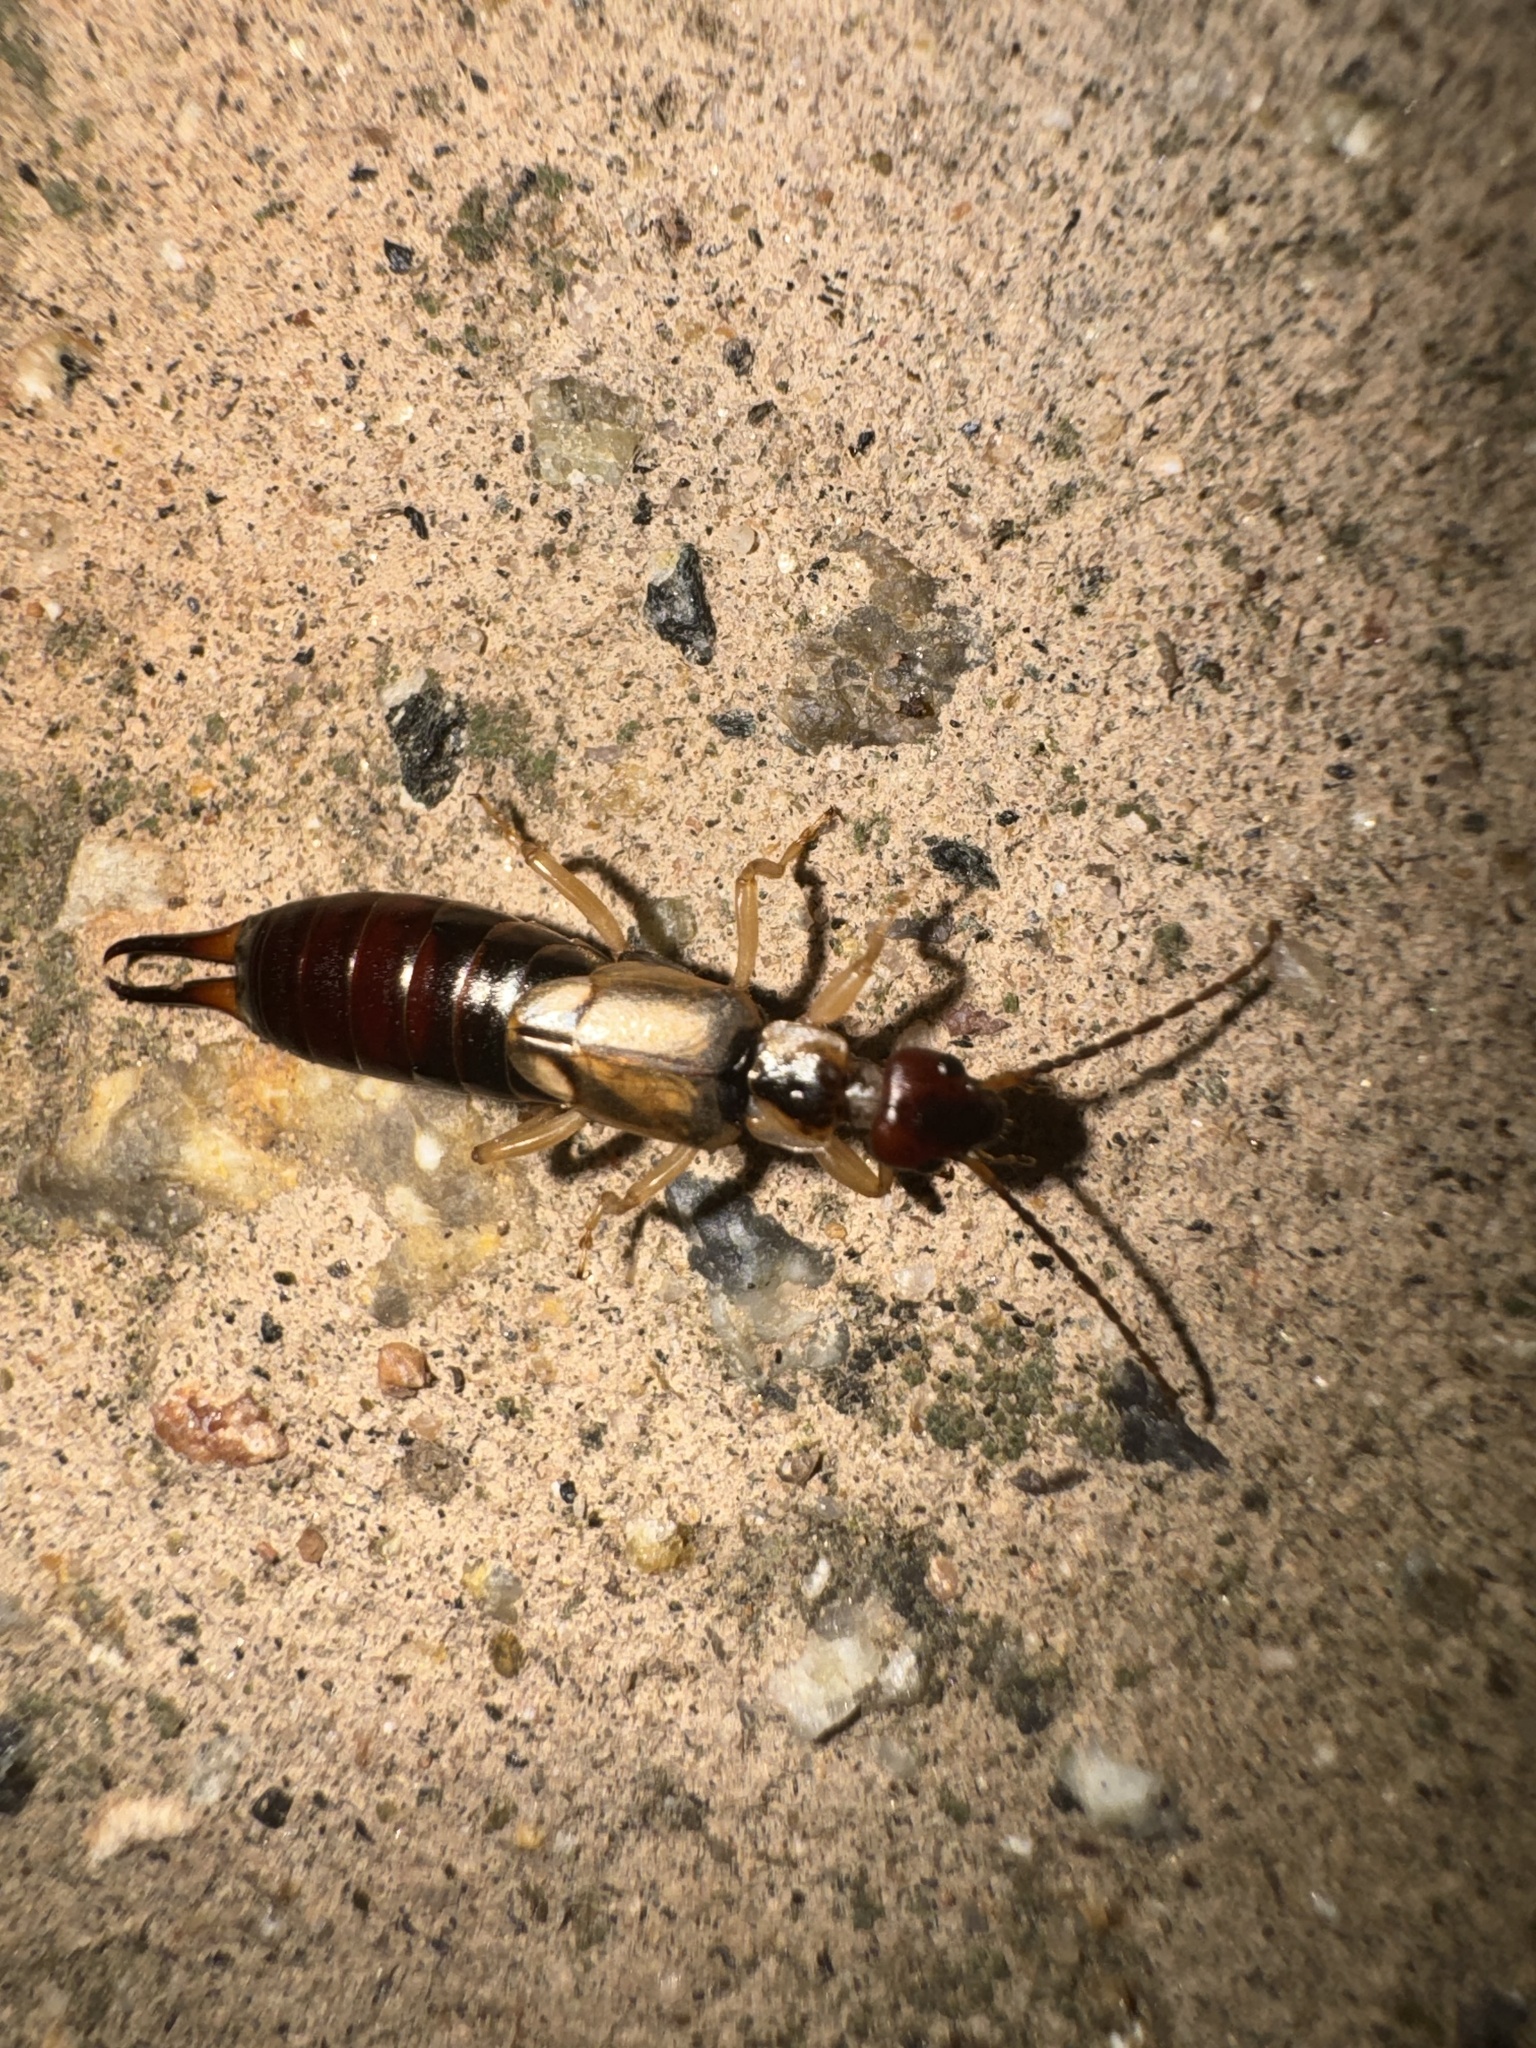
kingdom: Animalia
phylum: Arthropoda
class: Insecta
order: Dermaptera
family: Forficulidae
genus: Forficula
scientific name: Forficula dentata
